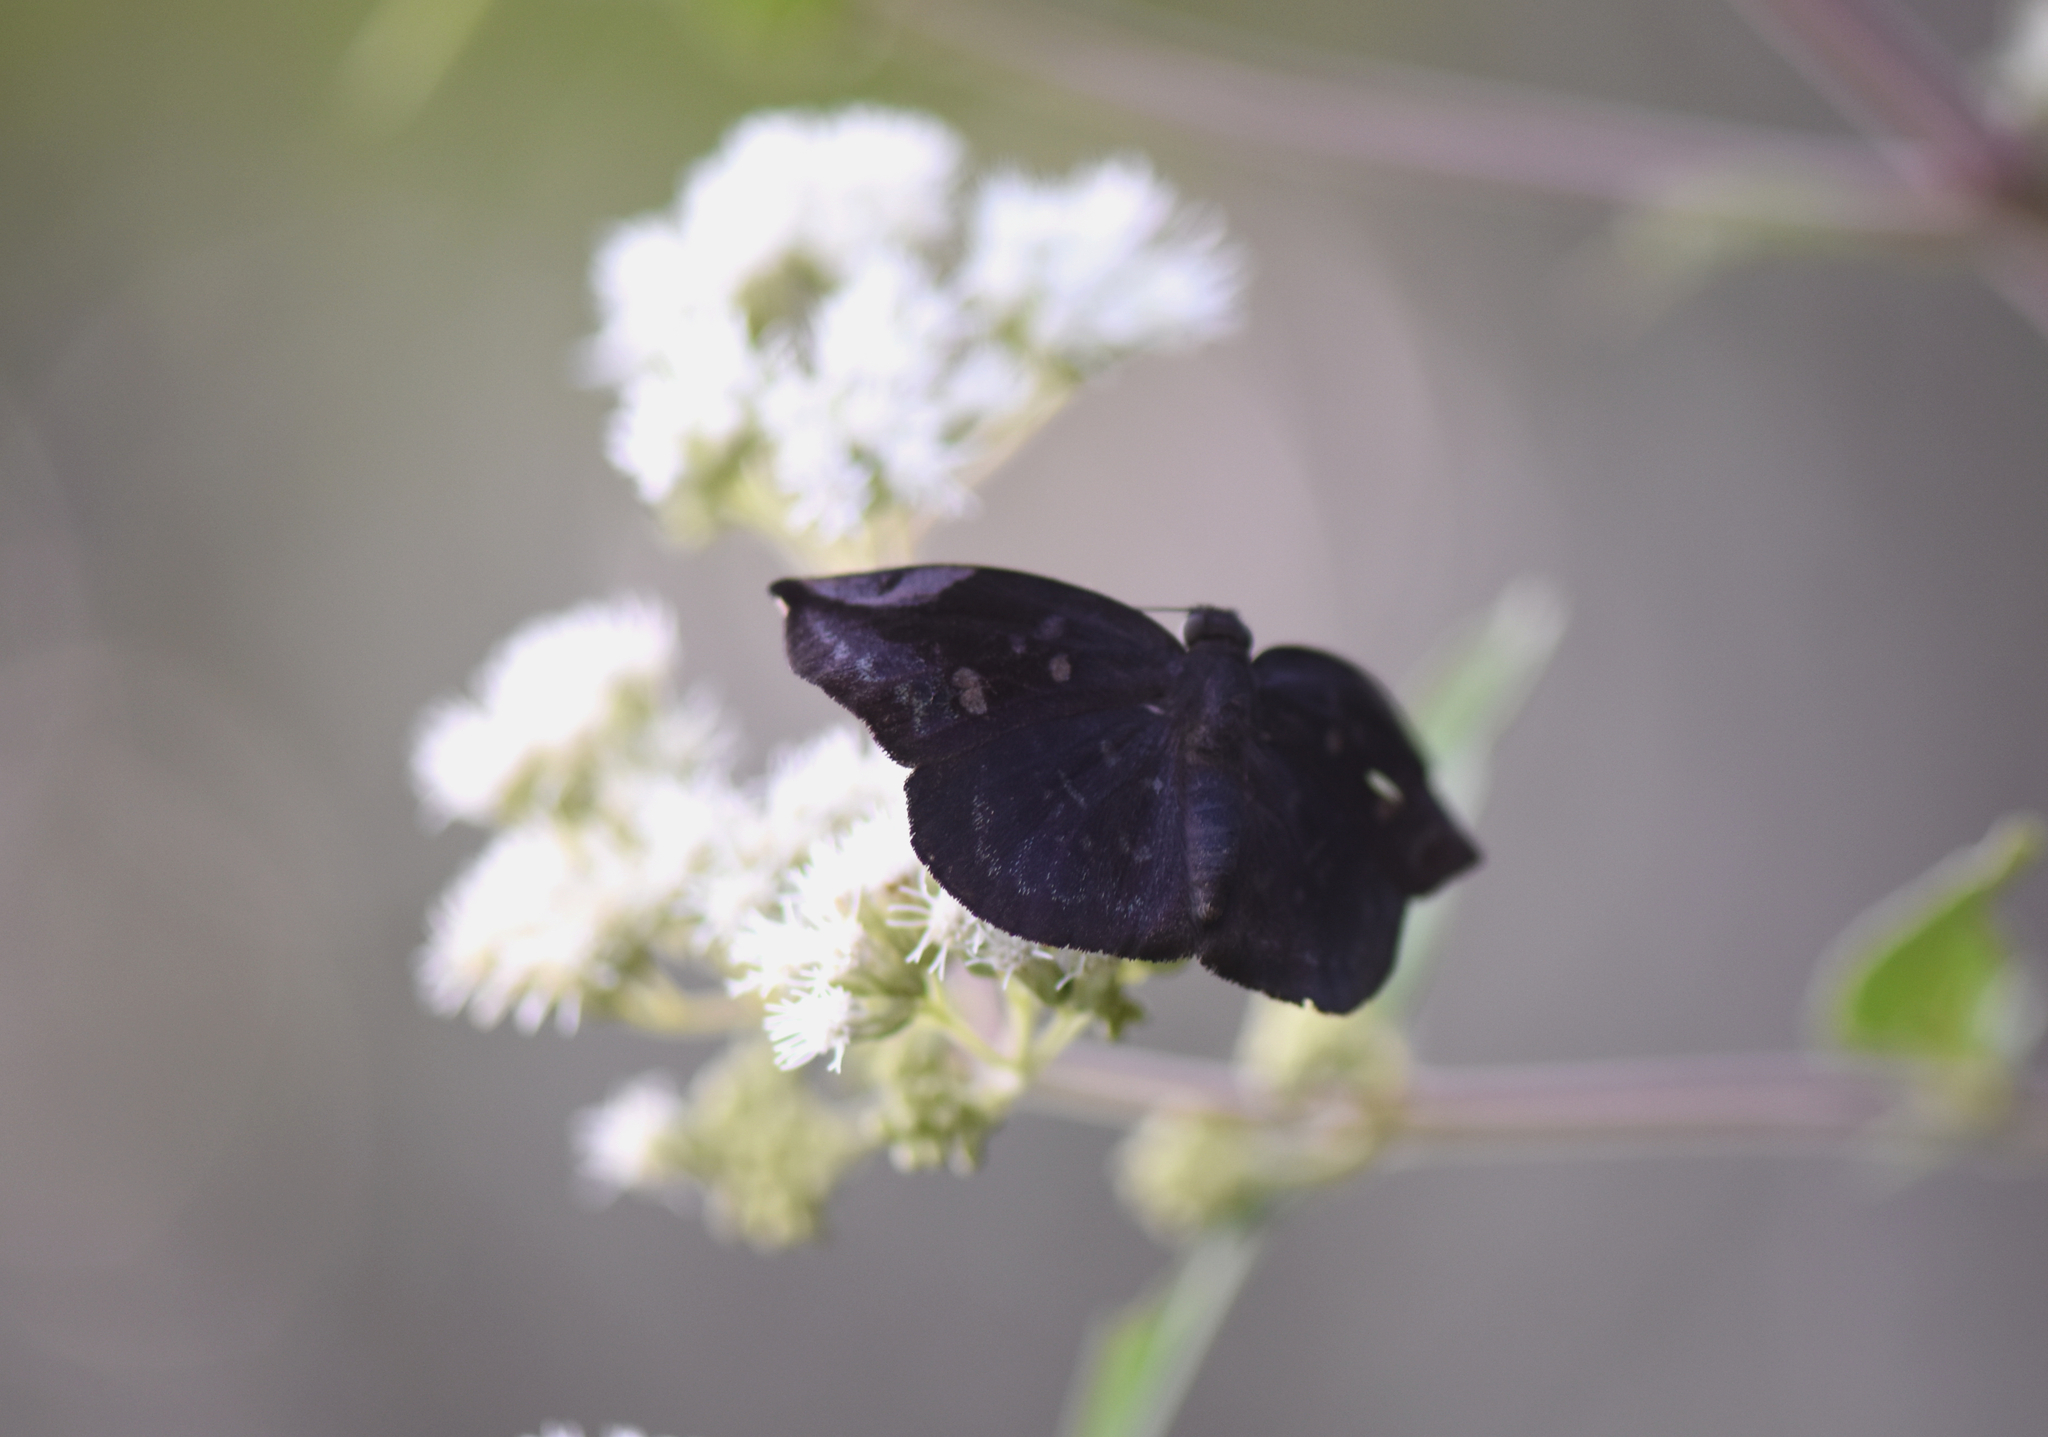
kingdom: Animalia
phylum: Arthropoda
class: Insecta
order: Lepidoptera
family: Hesperiidae
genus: Achlyodes
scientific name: Achlyodes thraso
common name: Sickle-winged skipper
